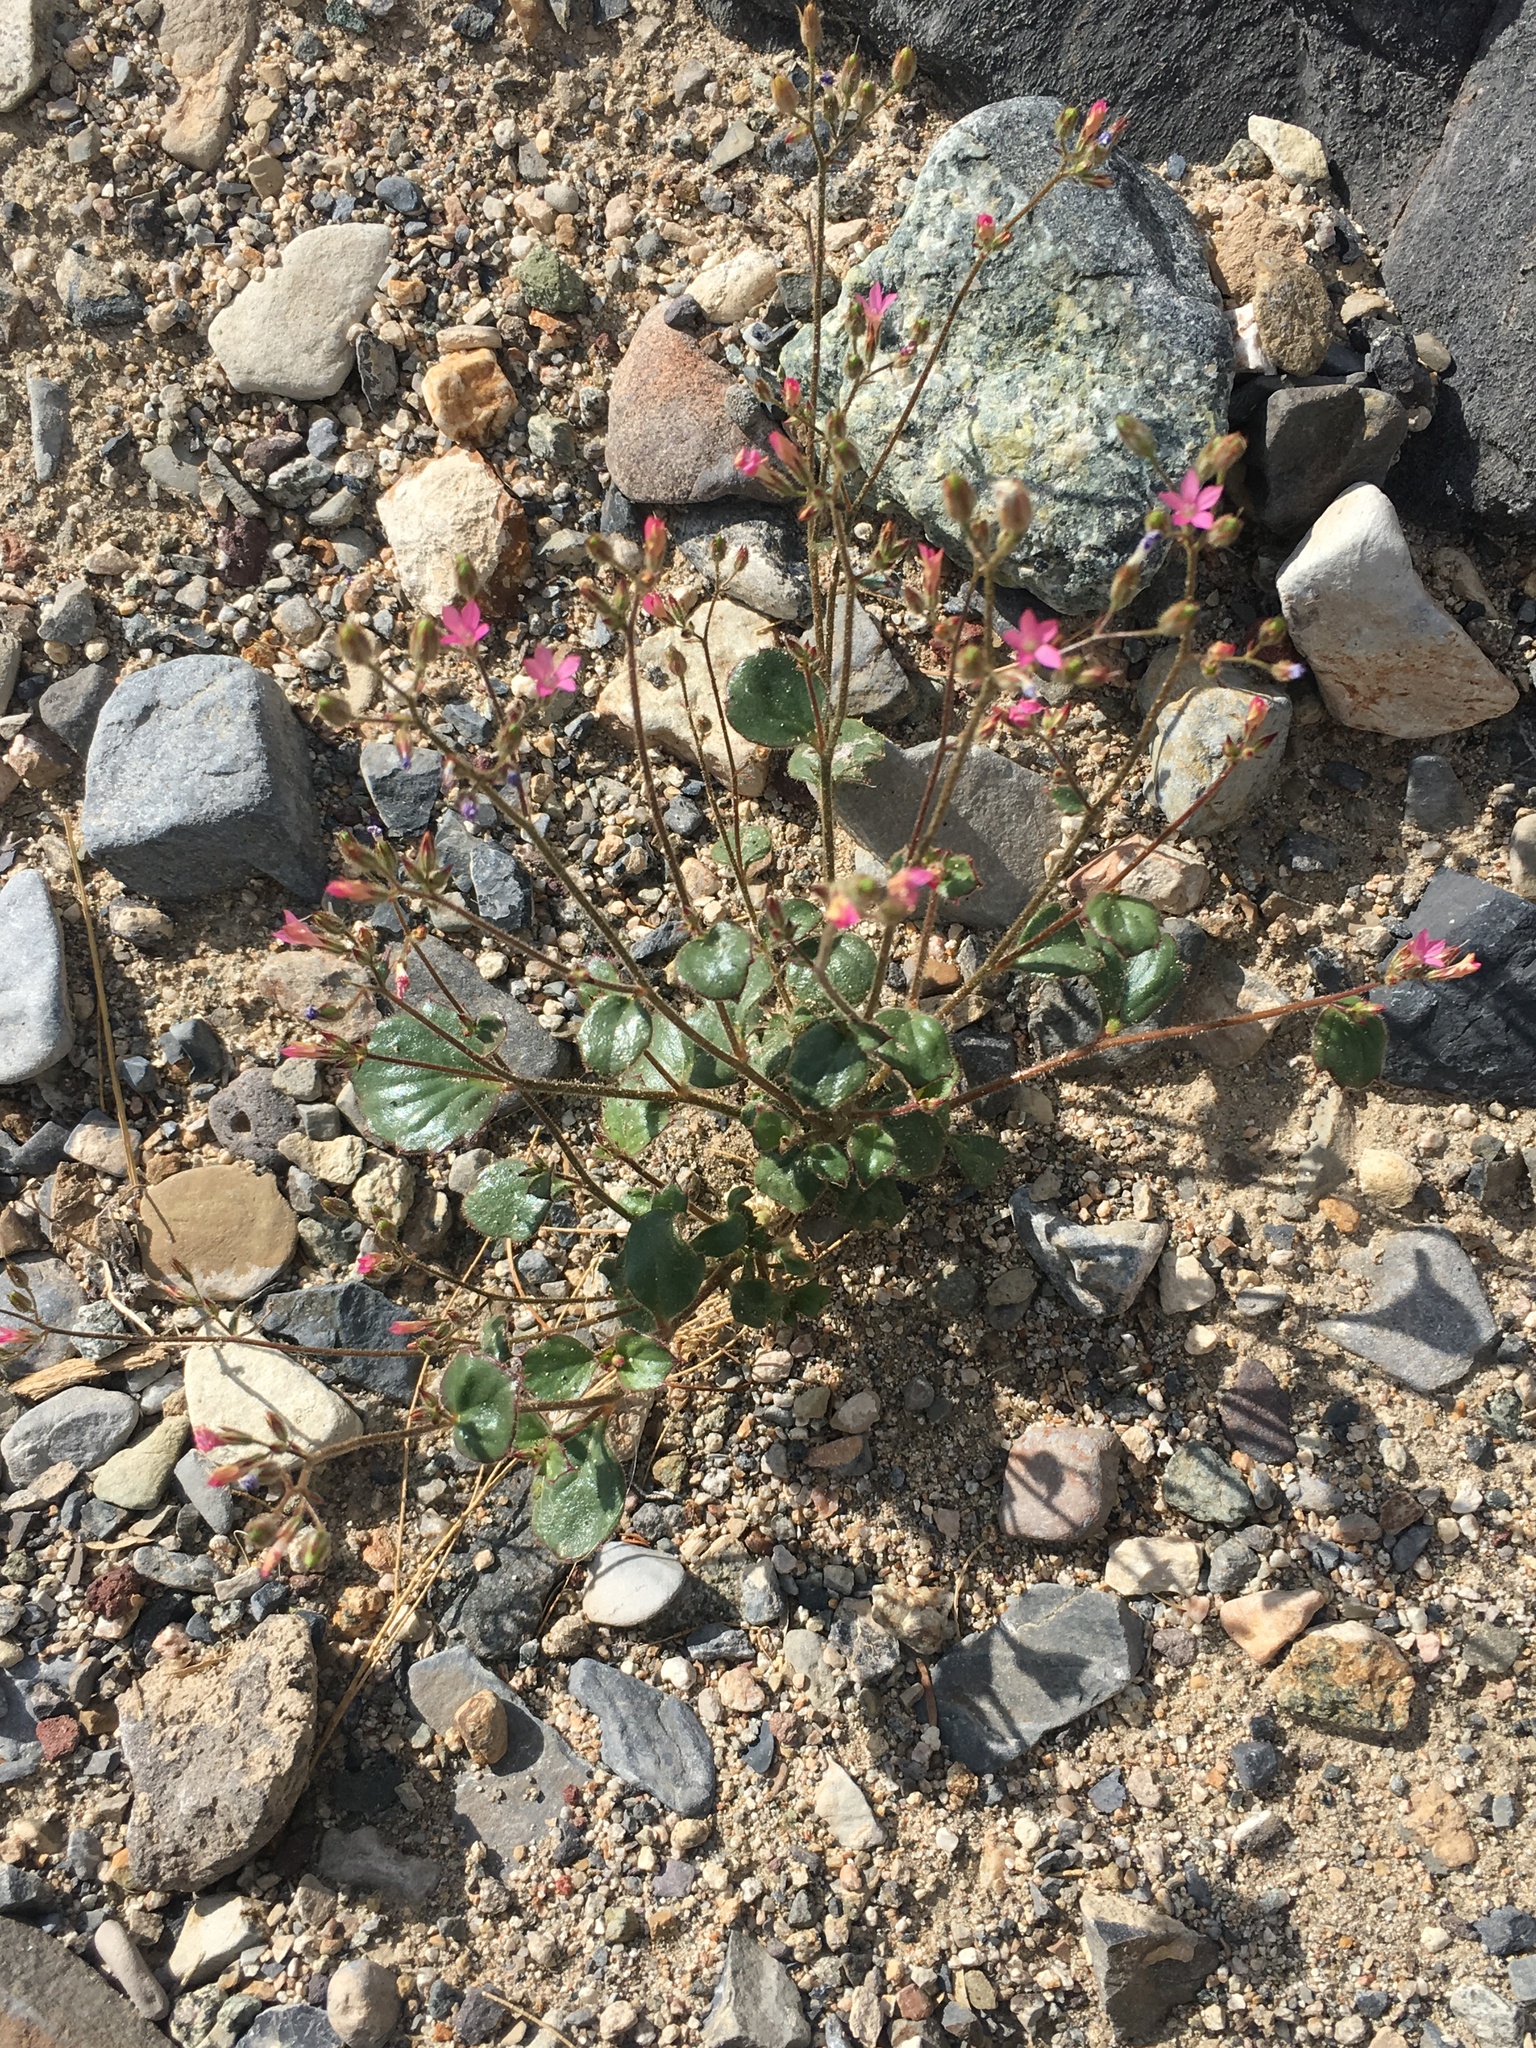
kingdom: Plantae
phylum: Tracheophyta
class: Magnoliopsida
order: Ericales
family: Polemoniaceae
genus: Aliciella
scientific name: Aliciella latifolia
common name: Broad-leaf gilia
